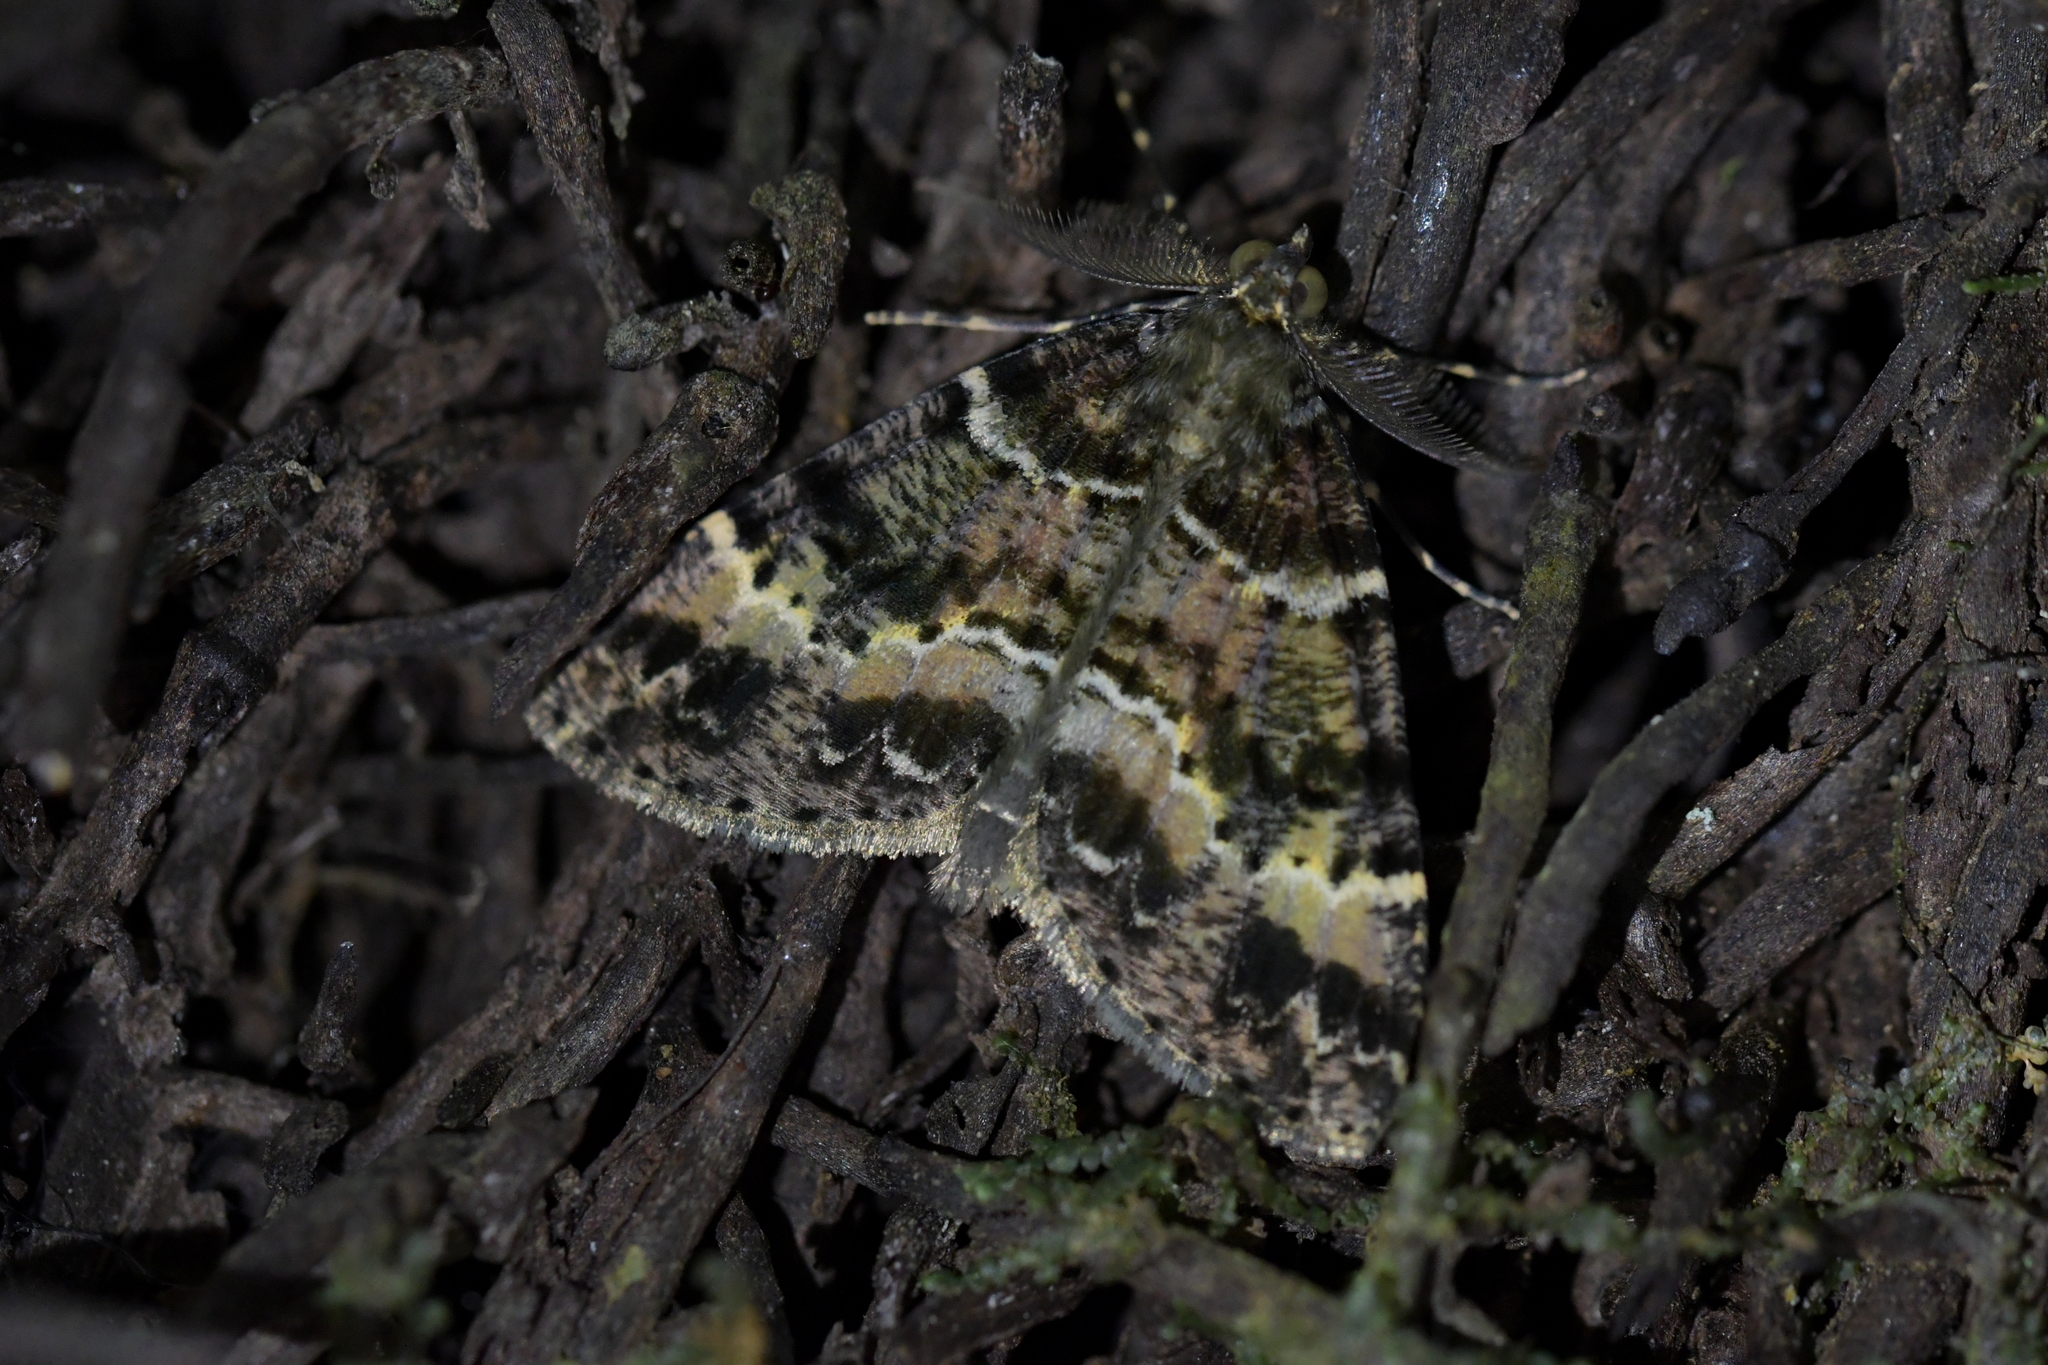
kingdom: Animalia
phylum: Arthropoda
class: Insecta
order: Lepidoptera
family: Geometridae
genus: Pseudocoremia
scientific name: Pseudocoremia productata
